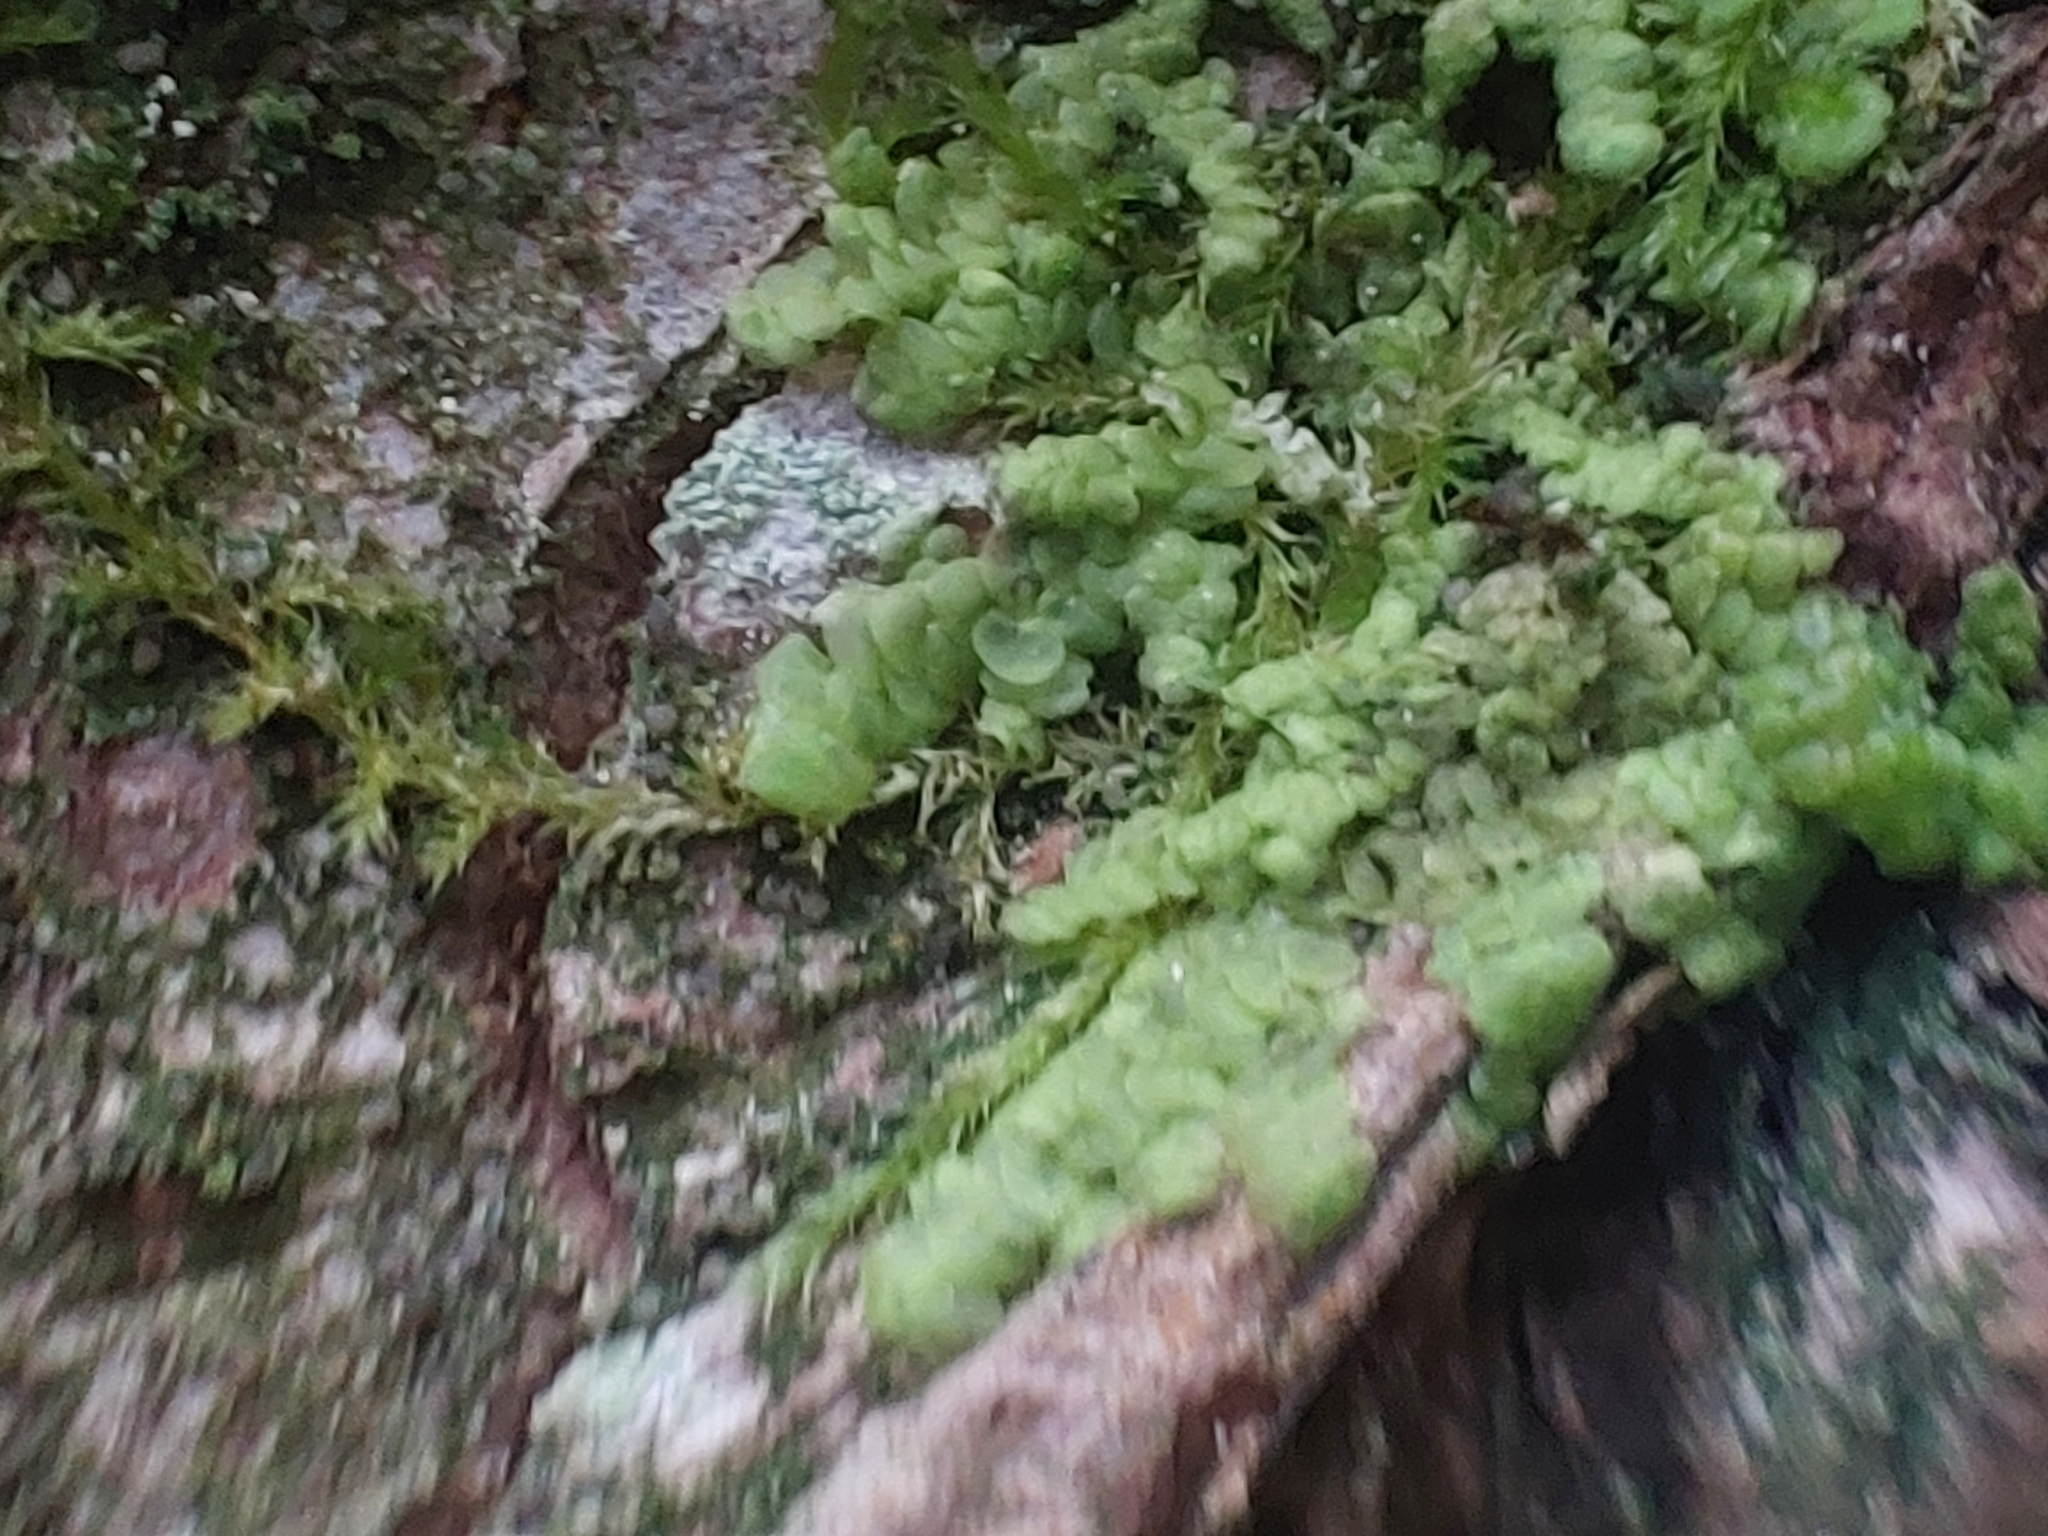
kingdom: Plantae
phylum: Marchantiophyta
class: Jungermanniopsida
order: Porellales
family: Radulaceae
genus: Radula
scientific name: Radula complanata
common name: Flat-leaved scalewort
